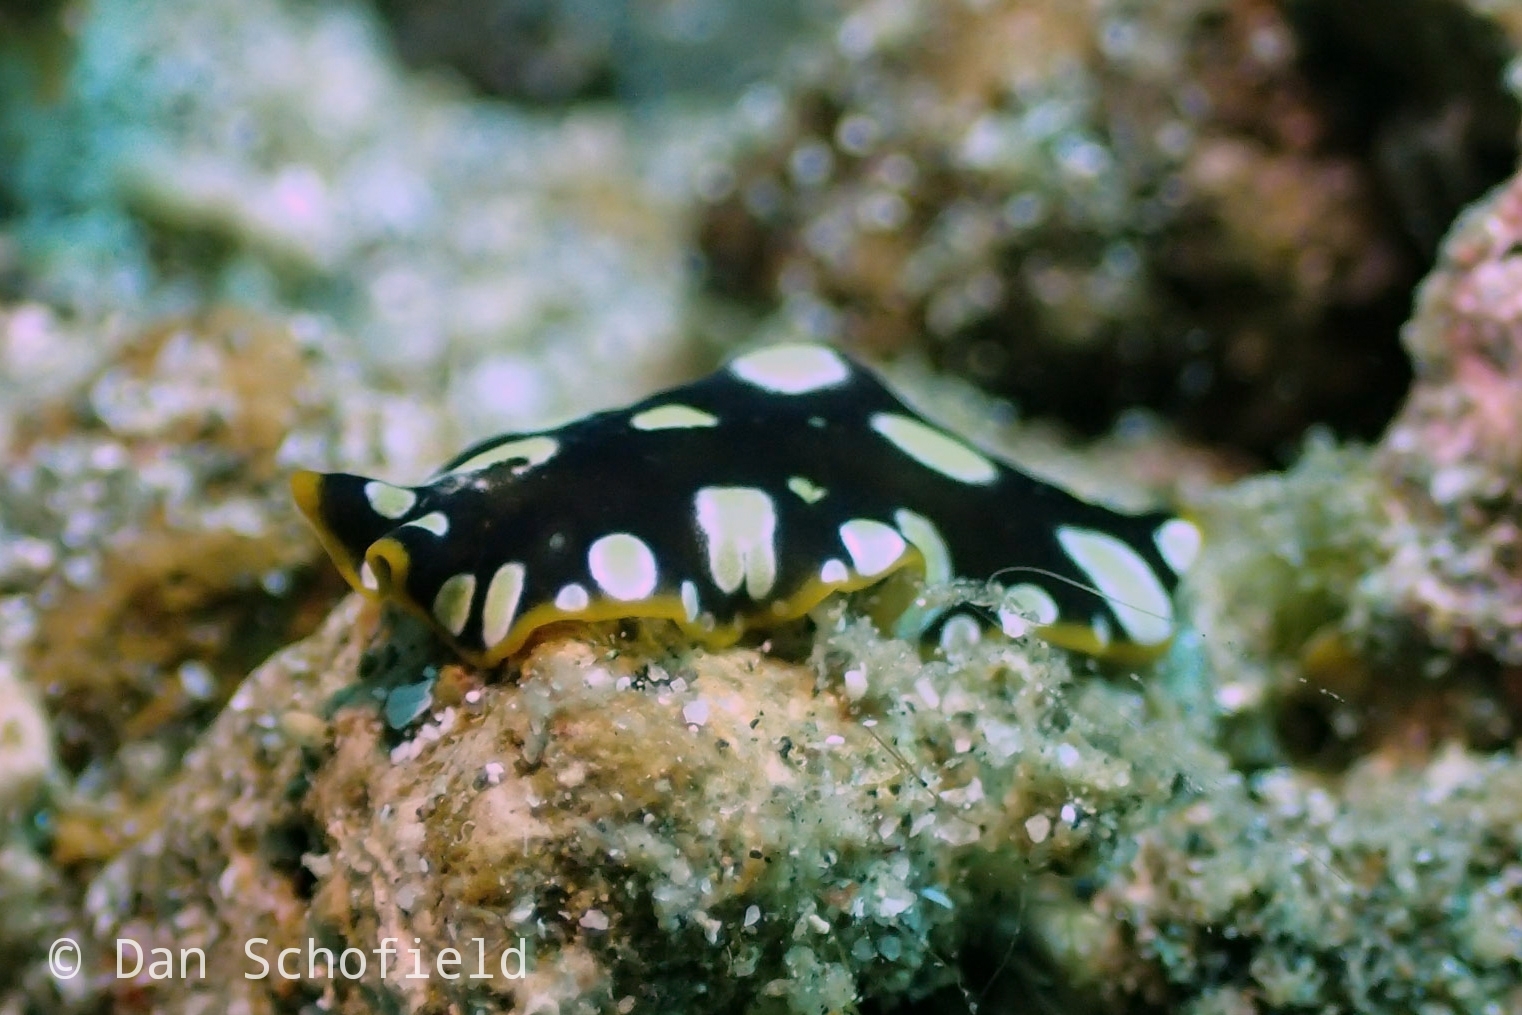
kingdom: Animalia
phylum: Platyhelminthes
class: Turbellaria
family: Pseudocerotidae
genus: Pseudoceros
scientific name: Pseudoceros scintillatus
